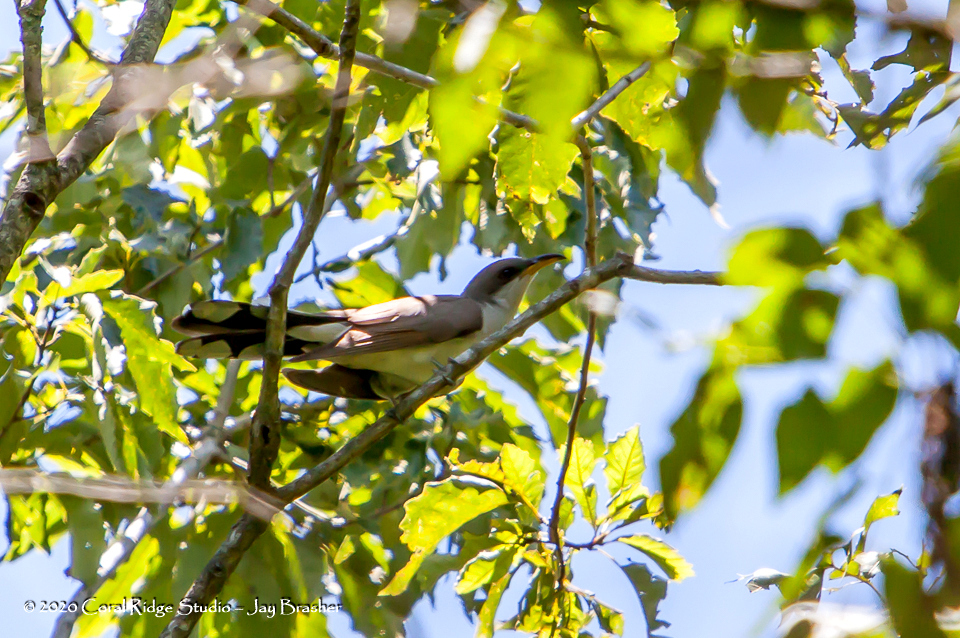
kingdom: Animalia
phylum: Chordata
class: Aves
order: Cuculiformes
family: Cuculidae
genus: Coccyzus
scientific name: Coccyzus americanus
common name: Yellow-billed cuckoo
